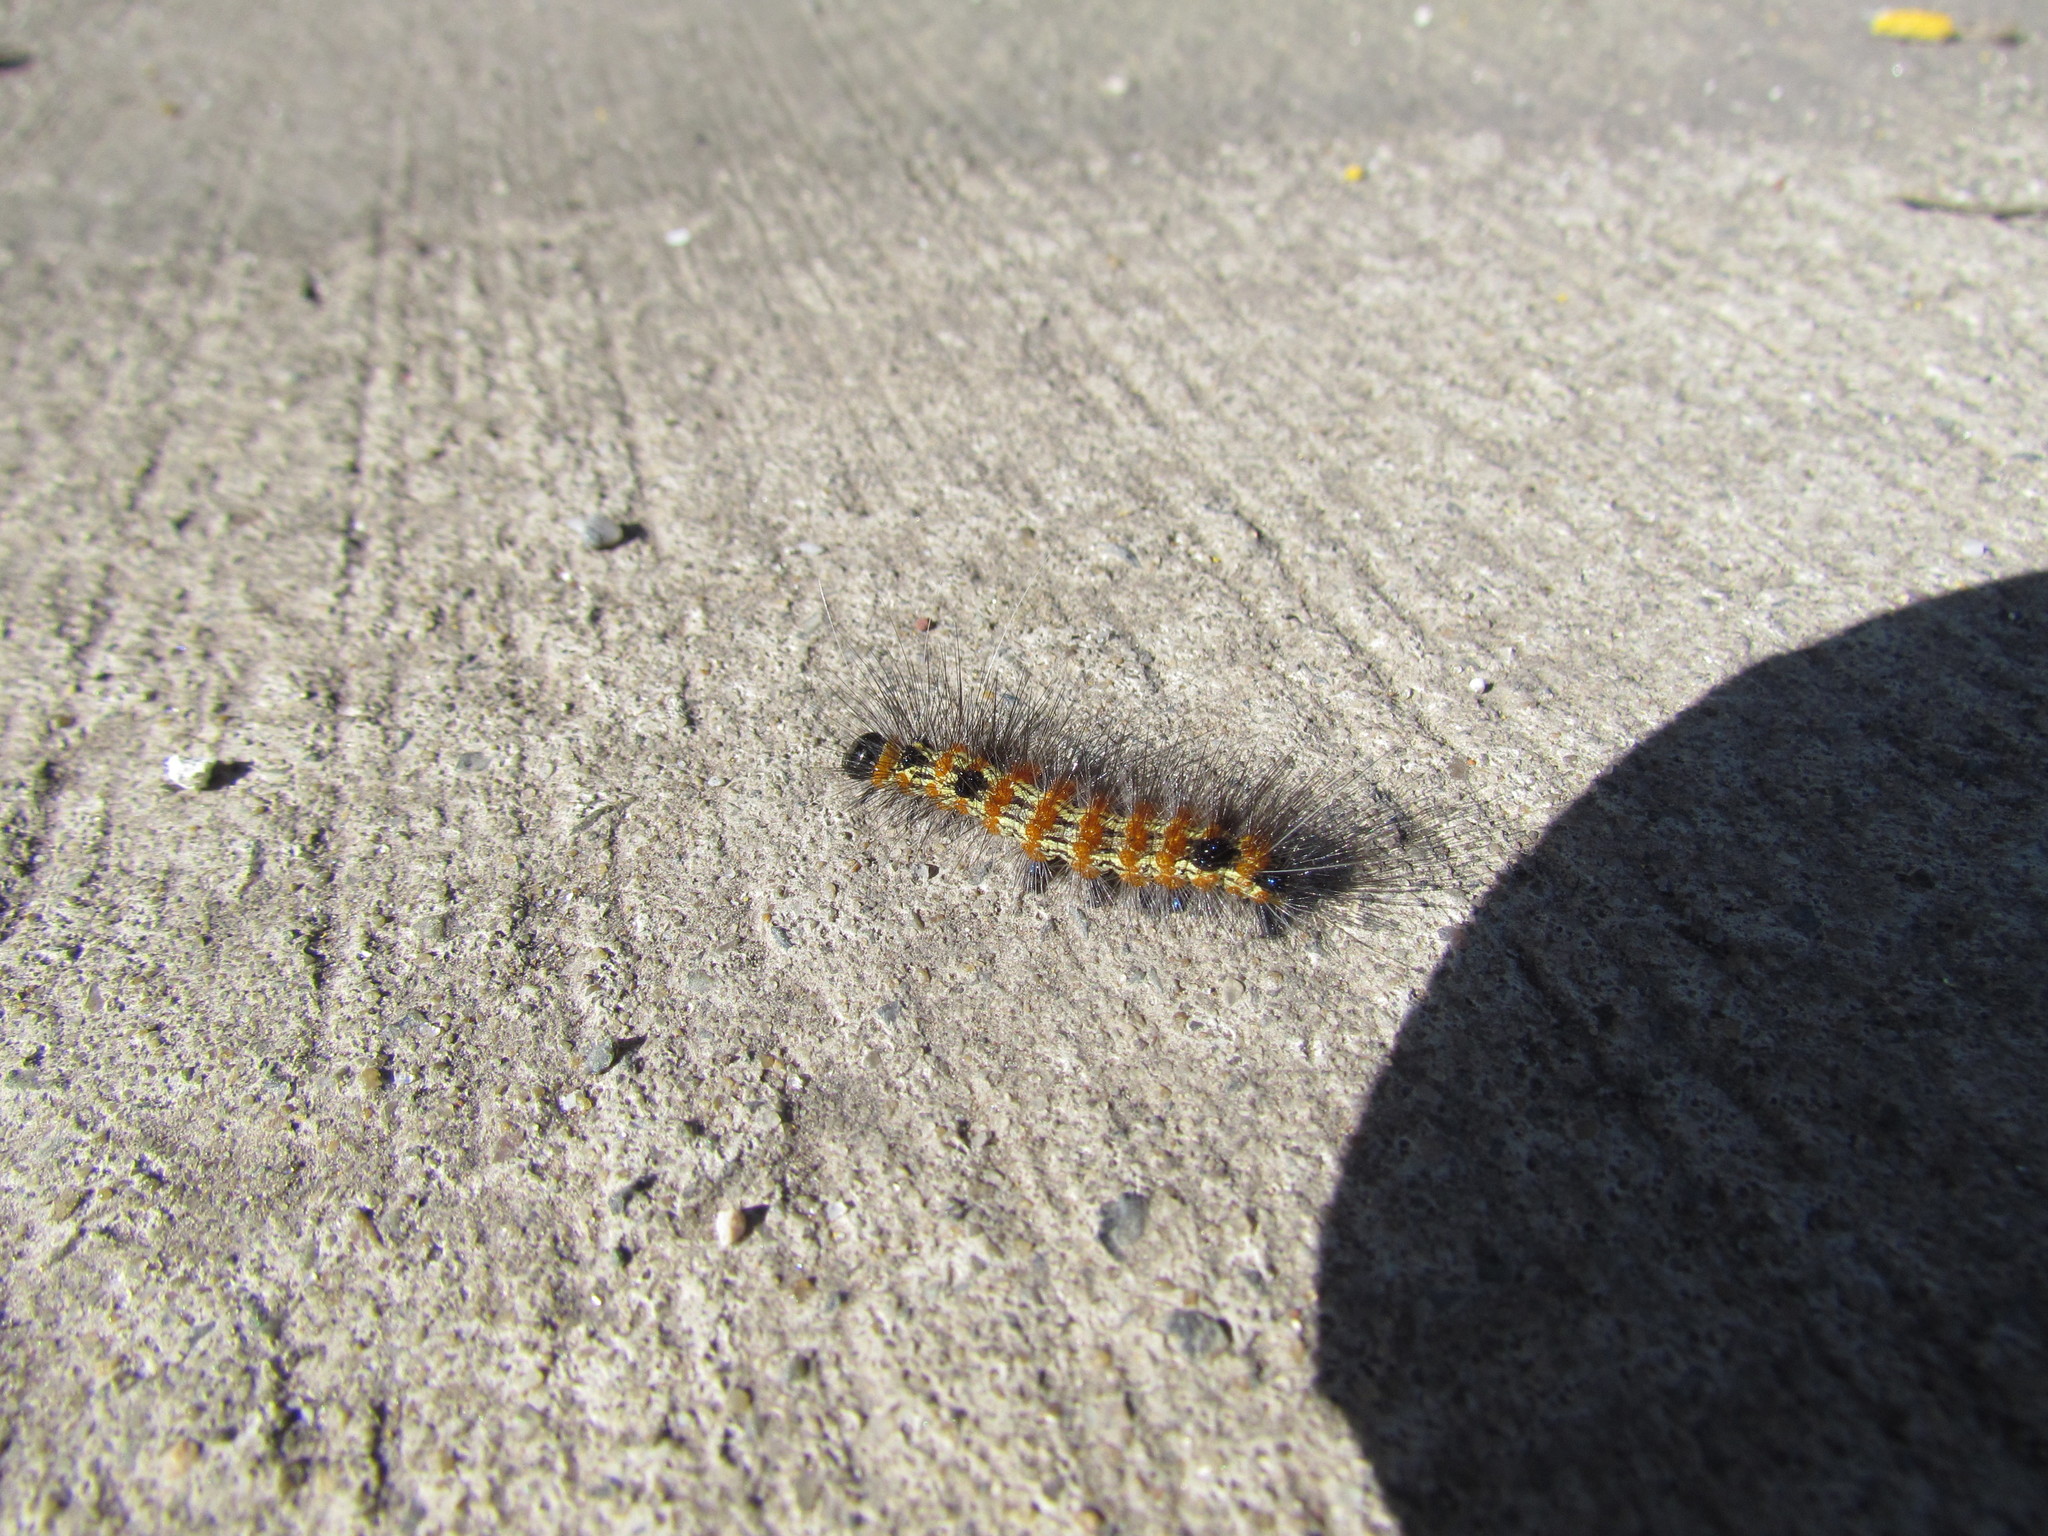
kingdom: Animalia
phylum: Arthropoda
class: Insecta
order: Lepidoptera
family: Erebidae
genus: Dysschema
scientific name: Dysschema sacrifica
